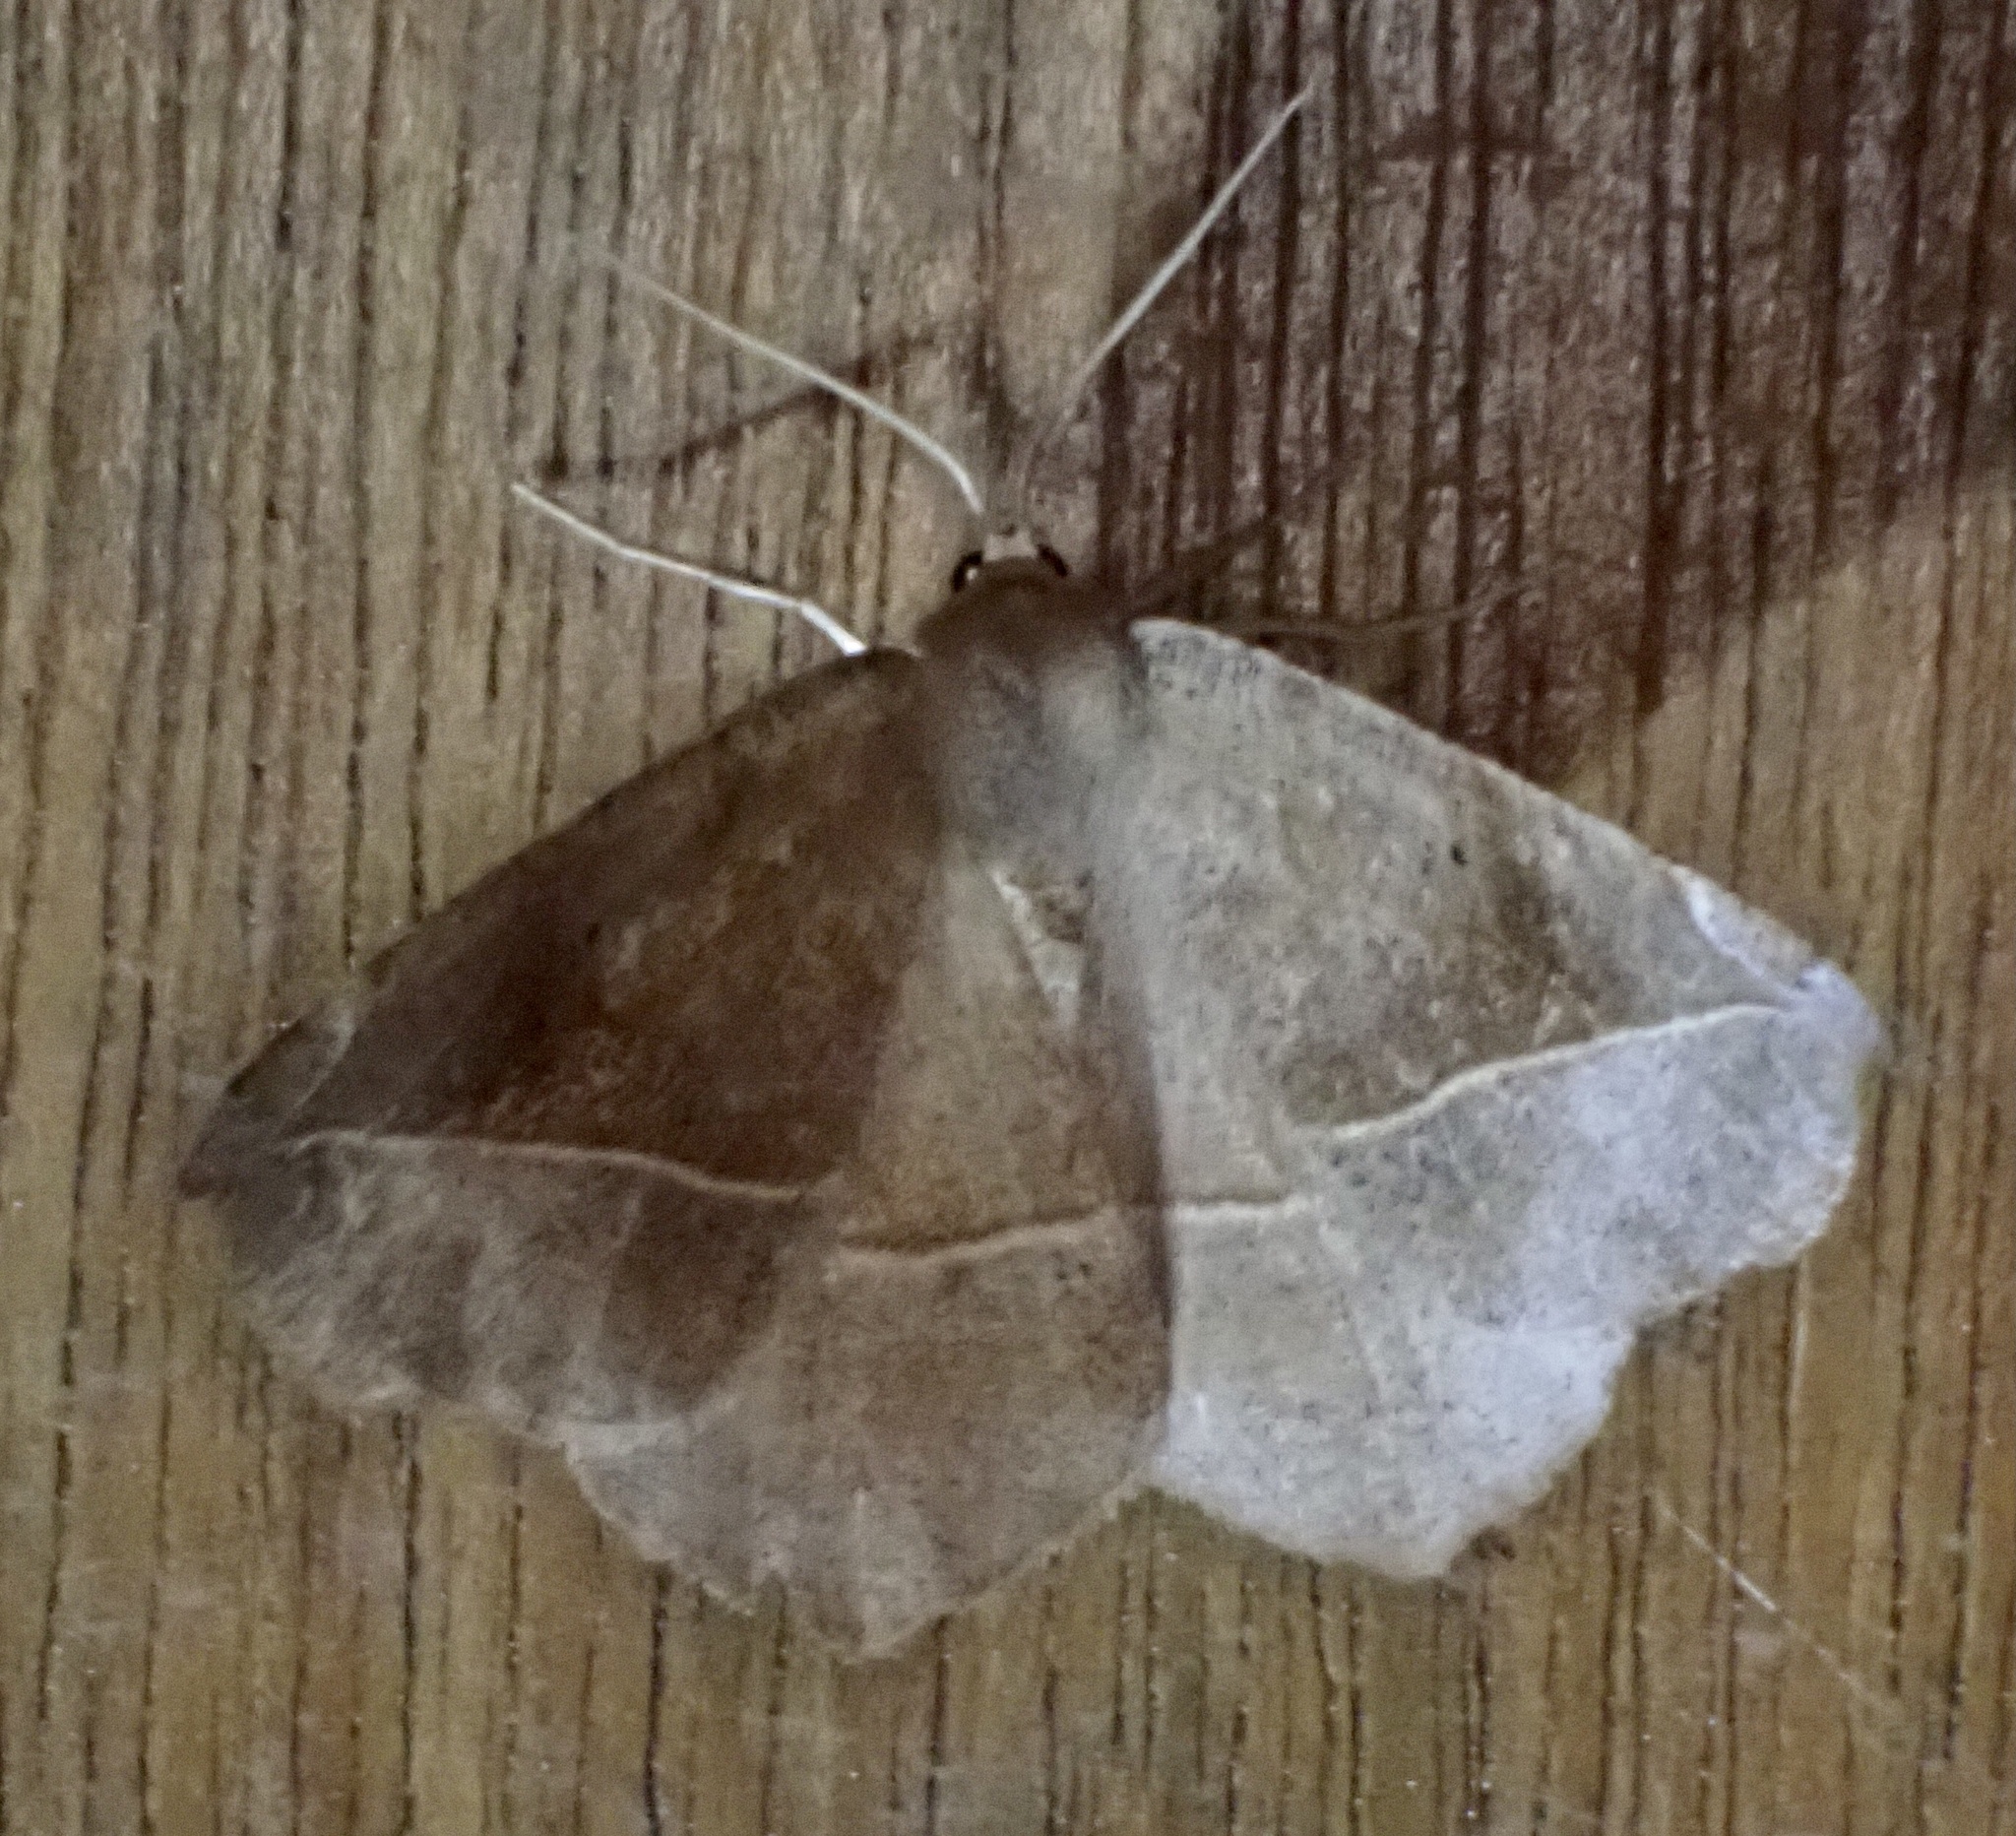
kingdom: Animalia
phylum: Arthropoda
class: Insecta
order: Lepidoptera
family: Geometridae
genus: Eutrapela
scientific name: Eutrapela clemataria
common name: Curved-toothed geometer
